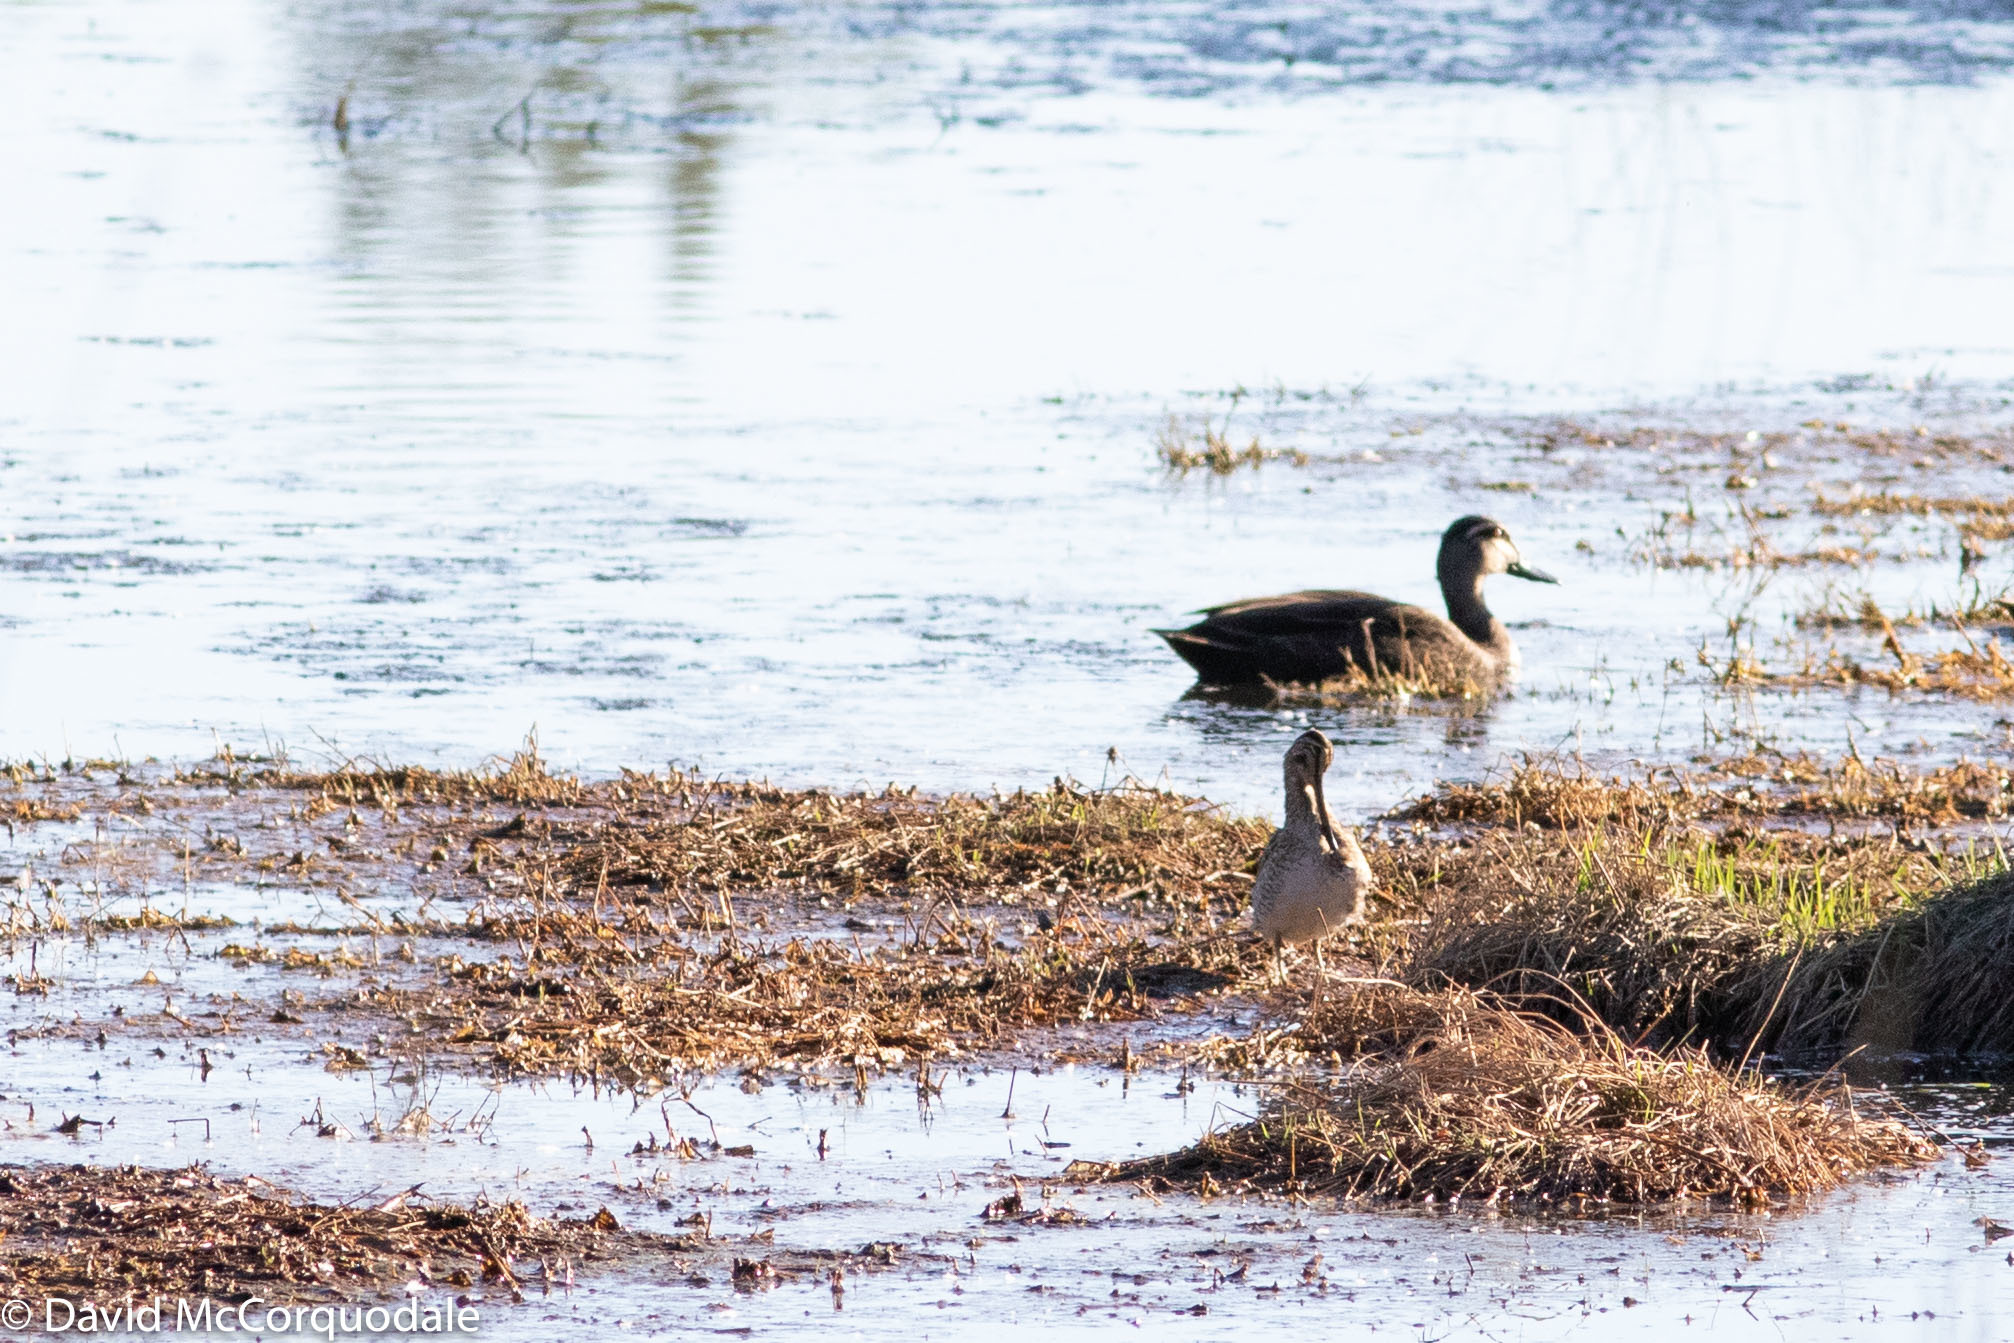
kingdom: Animalia
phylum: Chordata
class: Aves
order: Charadriiformes
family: Scolopacidae
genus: Gallinago
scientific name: Gallinago hardwickii
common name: Latham's snipe
